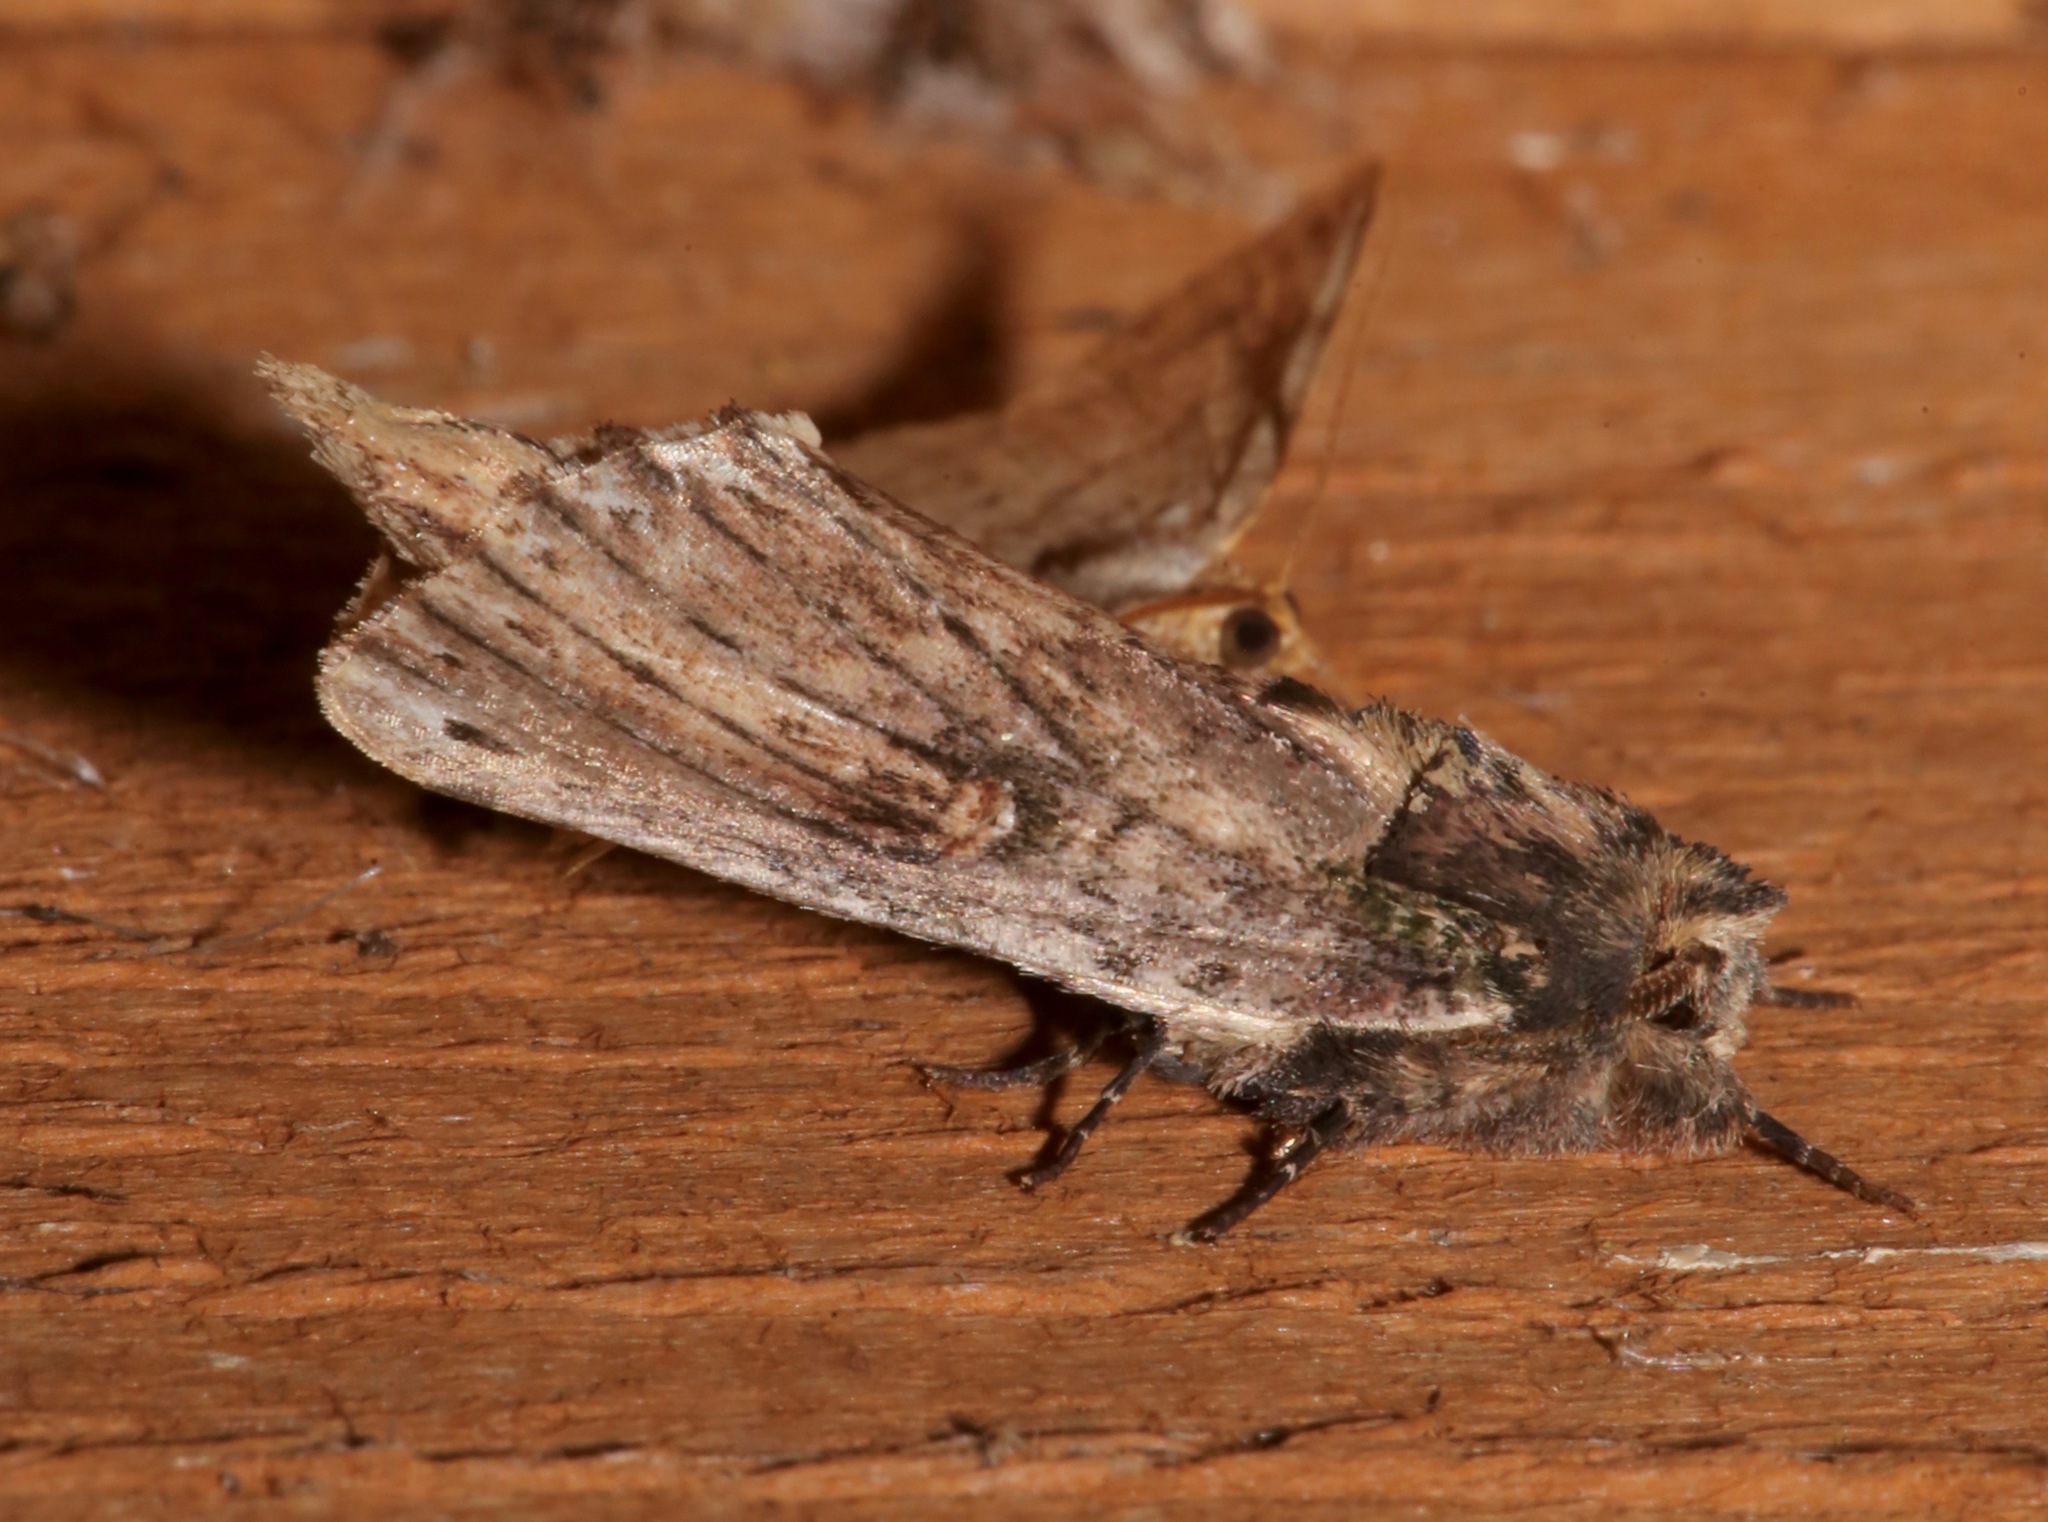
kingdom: Animalia
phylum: Arthropoda
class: Insecta
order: Lepidoptera
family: Notodontidae
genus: Schizura
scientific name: Schizura ipomaeae
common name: Morning-glory prominent
